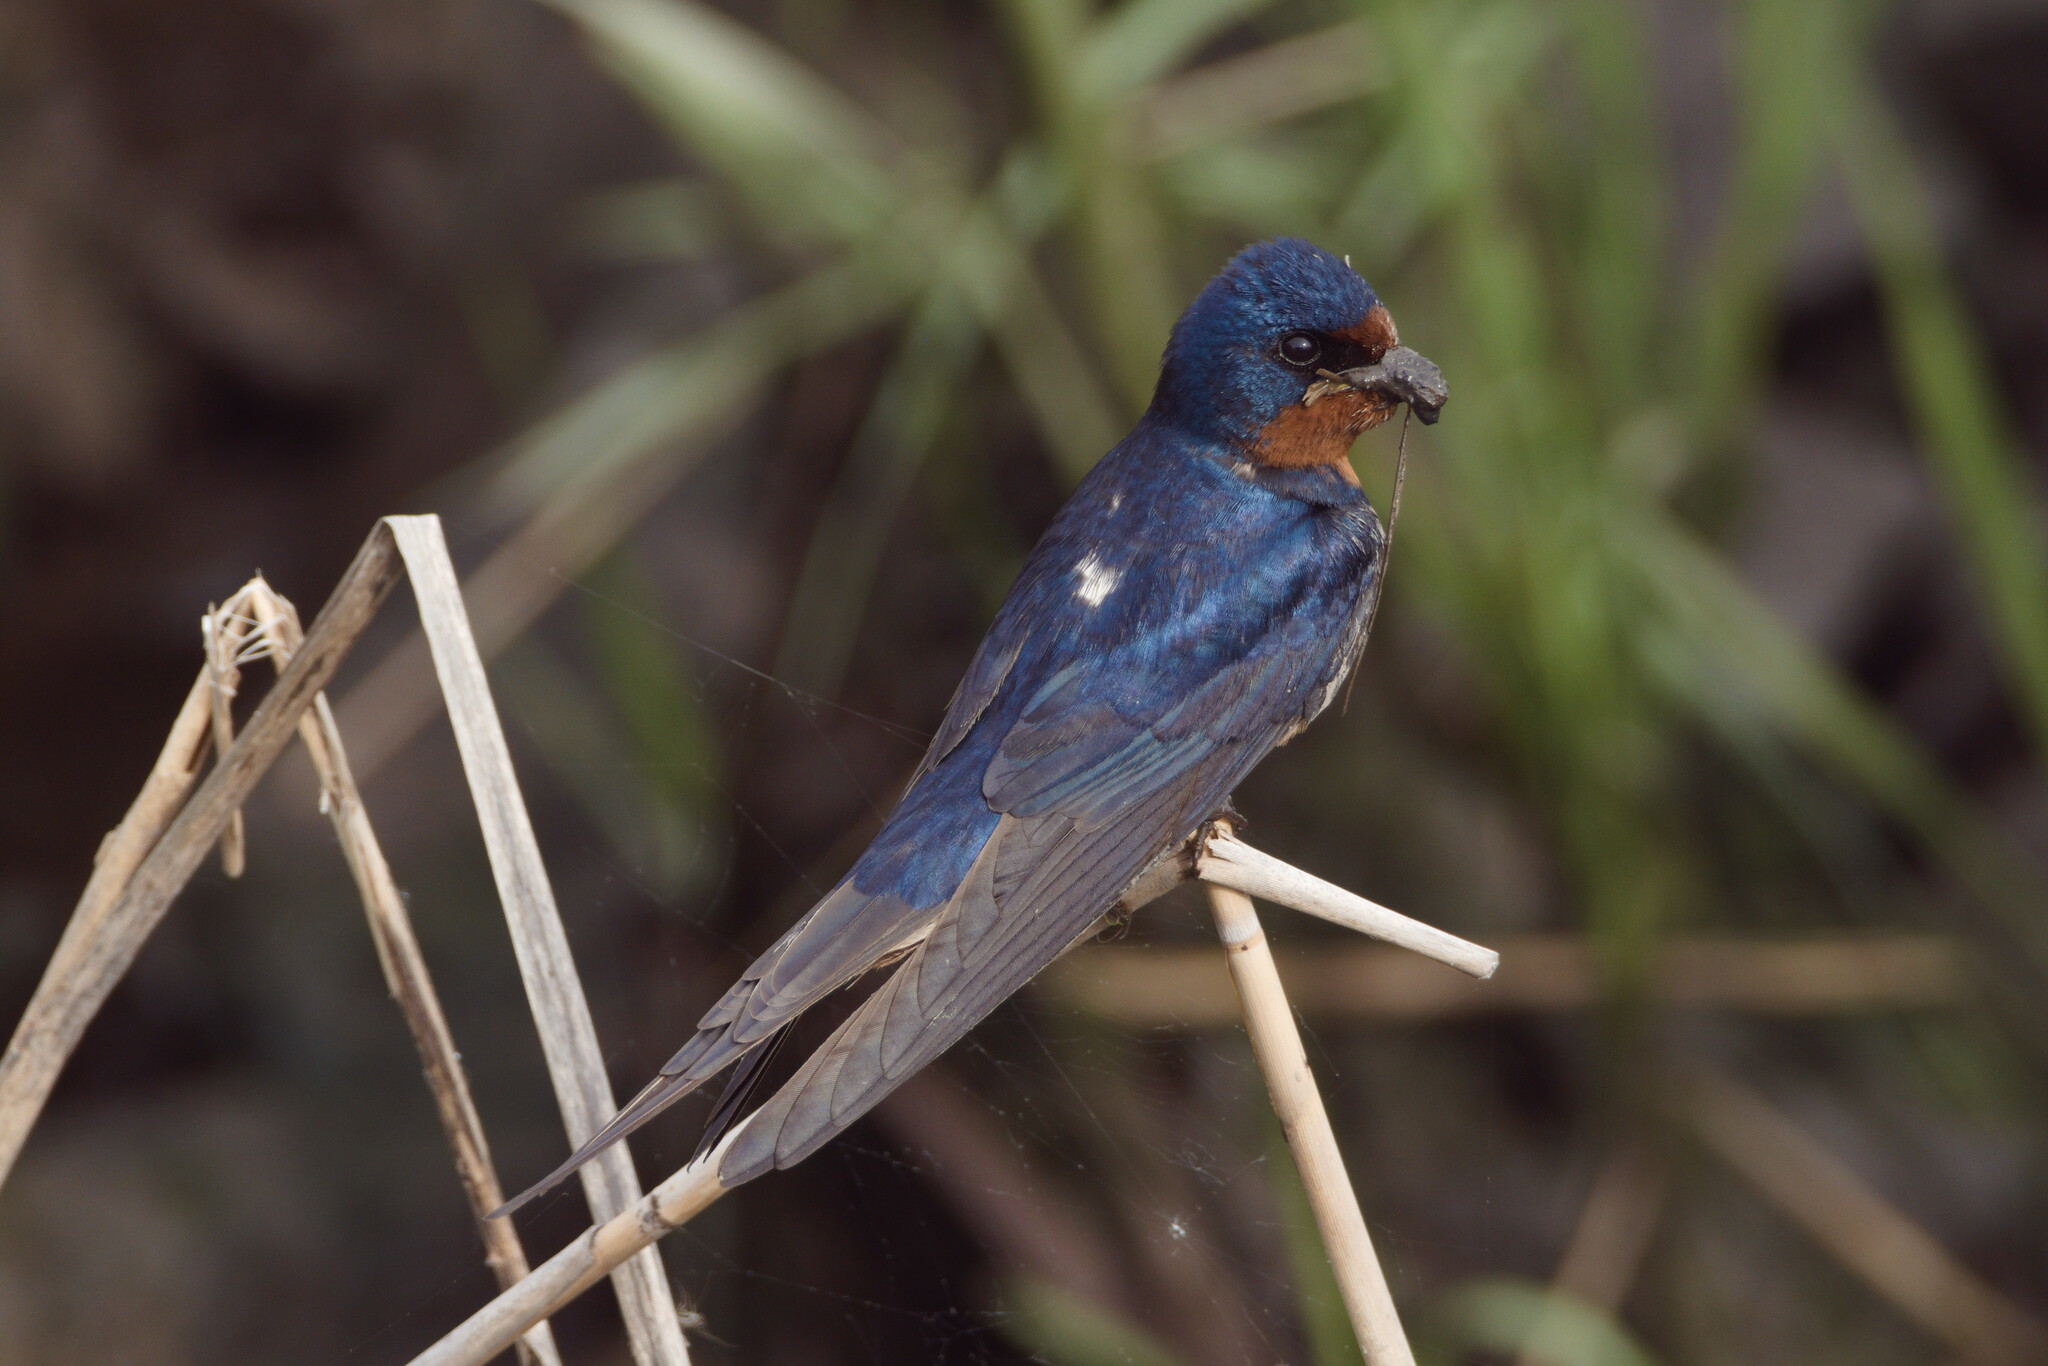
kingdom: Animalia
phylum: Chordata
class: Aves
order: Passeriformes
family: Hirundinidae
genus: Hirundo
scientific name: Hirundo rustica
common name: Barn swallow
